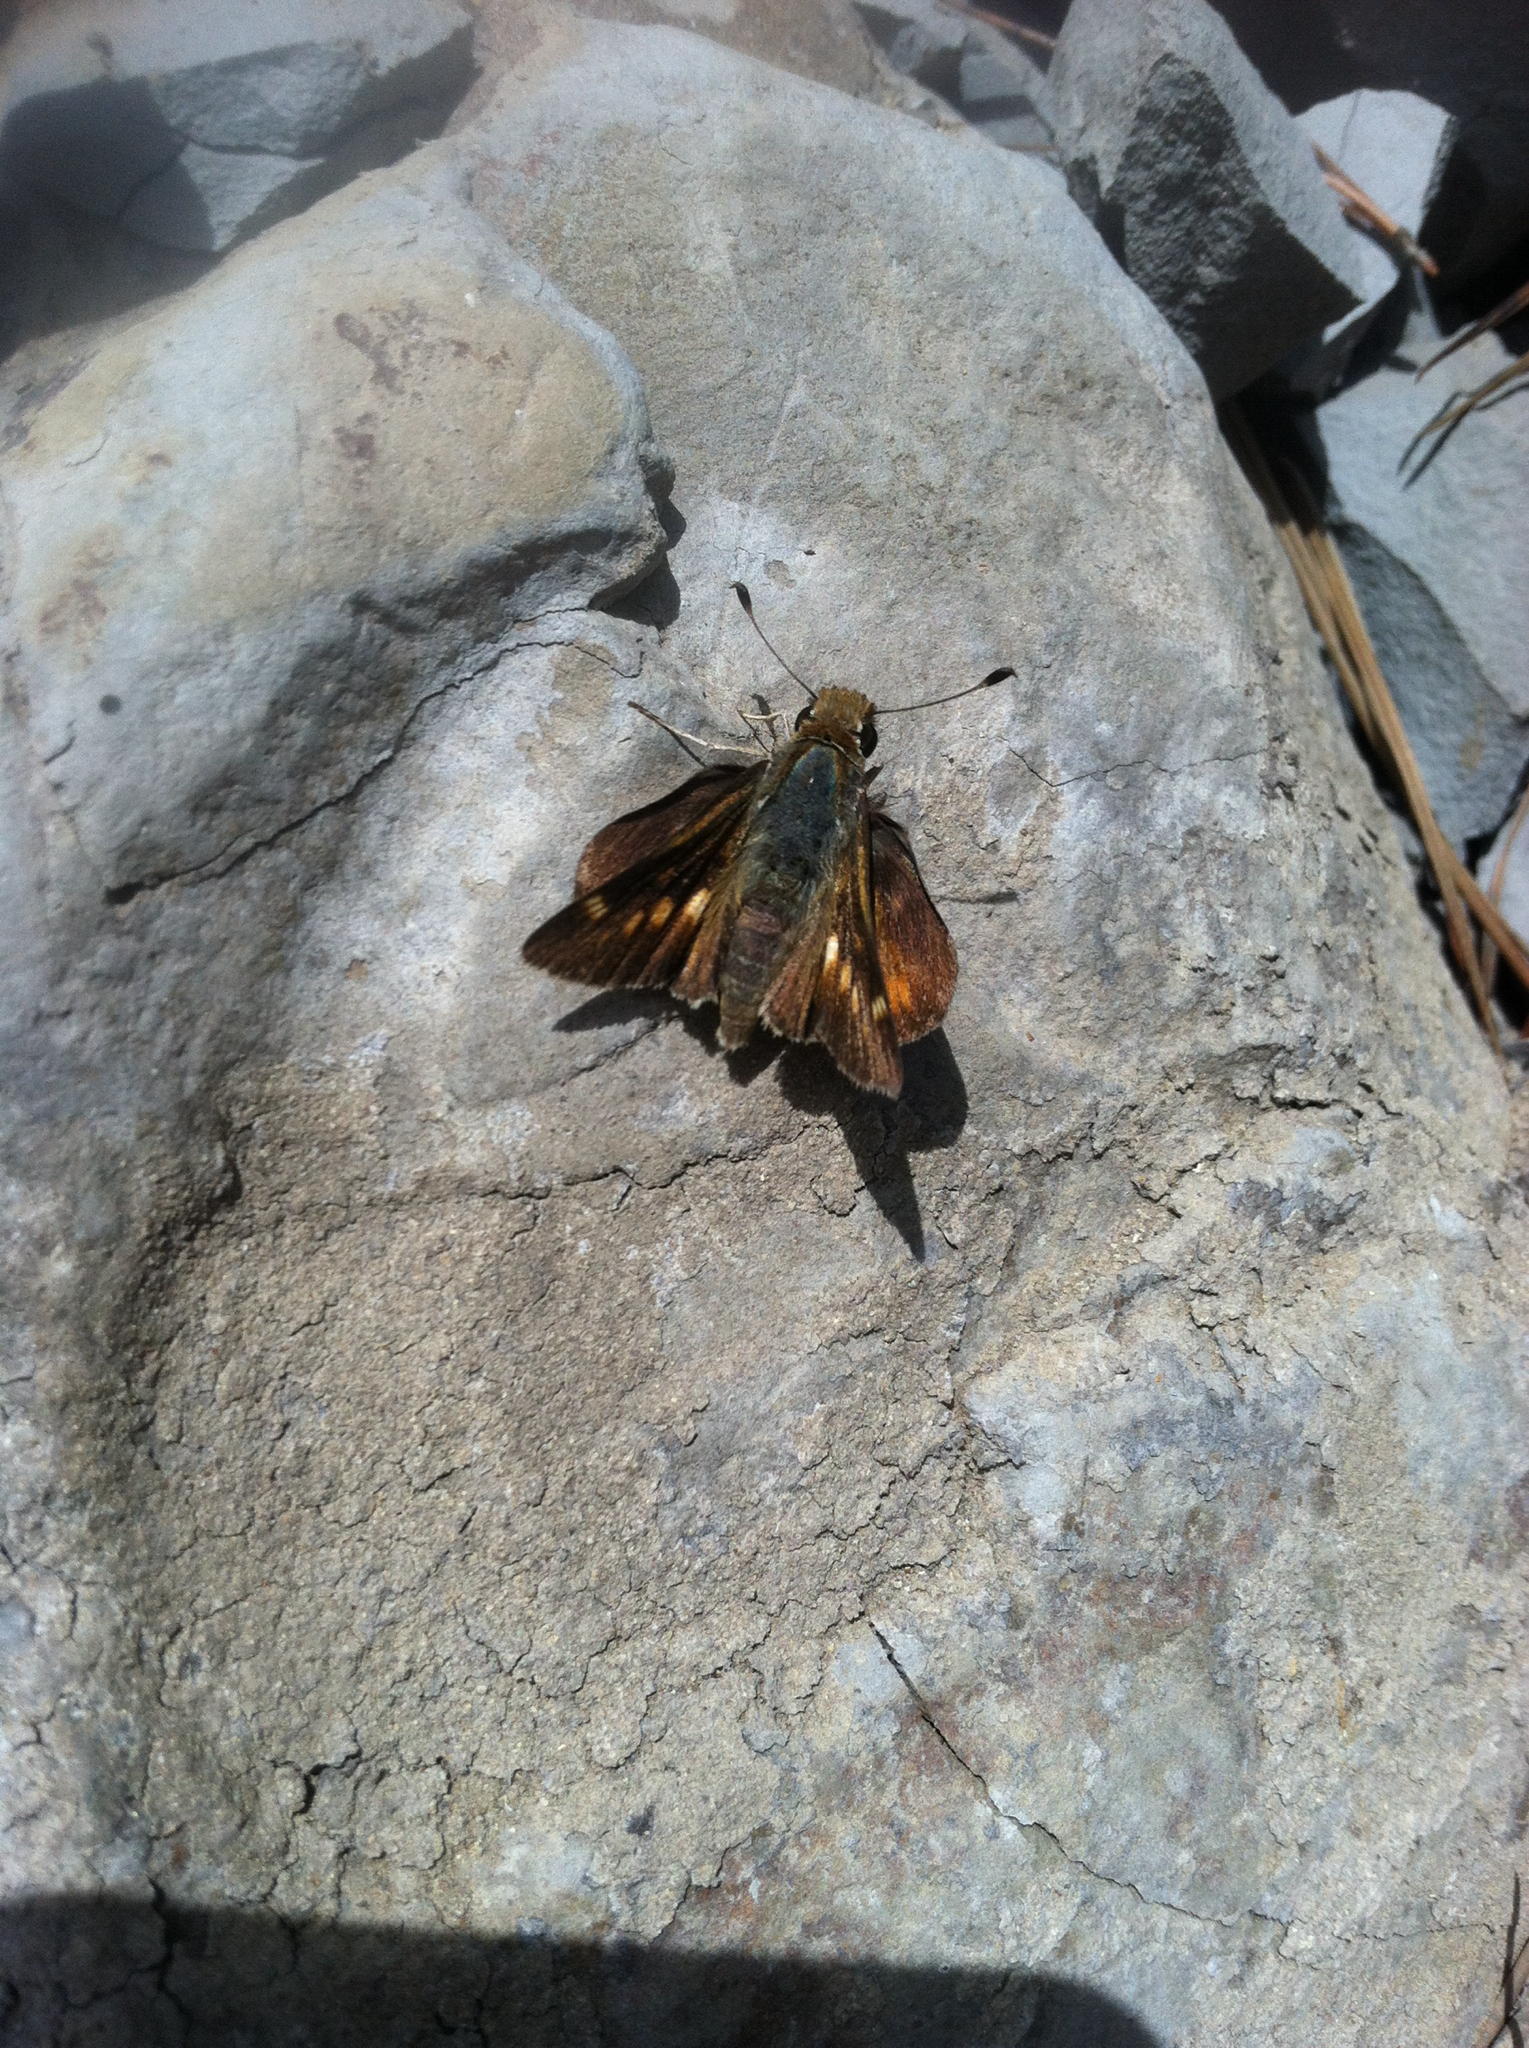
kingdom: Animalia
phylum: Arthropoda
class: Insecta
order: Lepidoptera
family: Hesperiidae
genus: Lon
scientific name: Lon melane
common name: Umber skipper
